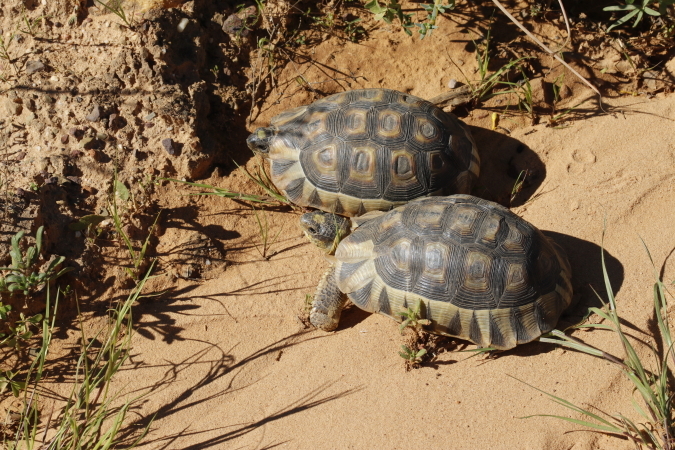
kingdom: Animalia
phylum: Chordata
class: Testudines
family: Testudinidae
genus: Chersina
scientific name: Chersina angulata
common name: South african bowsprit tortoise
